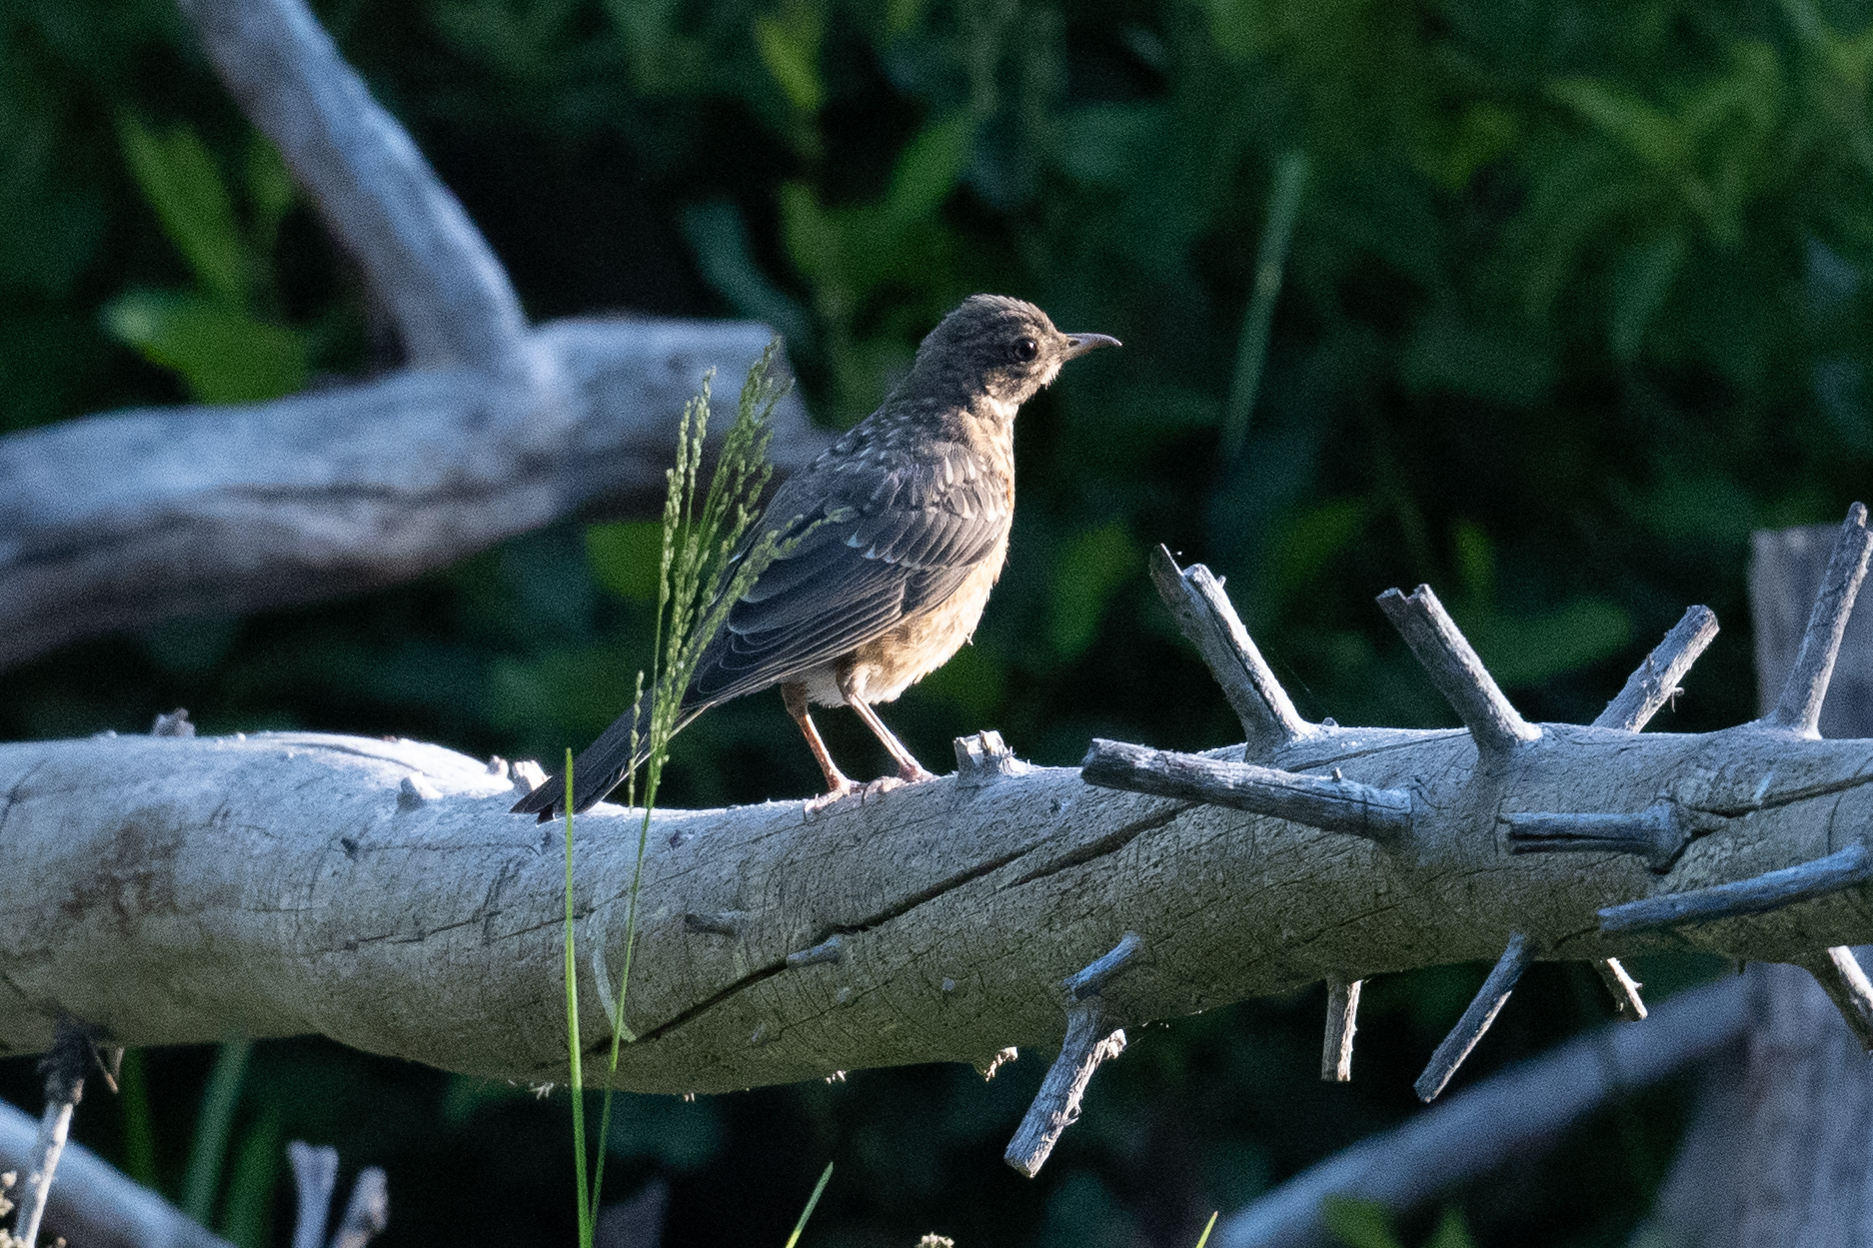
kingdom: Animalia
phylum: Chordata
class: Aves
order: Passeriformes
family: Turdidae
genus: Turdus
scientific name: Turdus migratorius
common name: American robin
